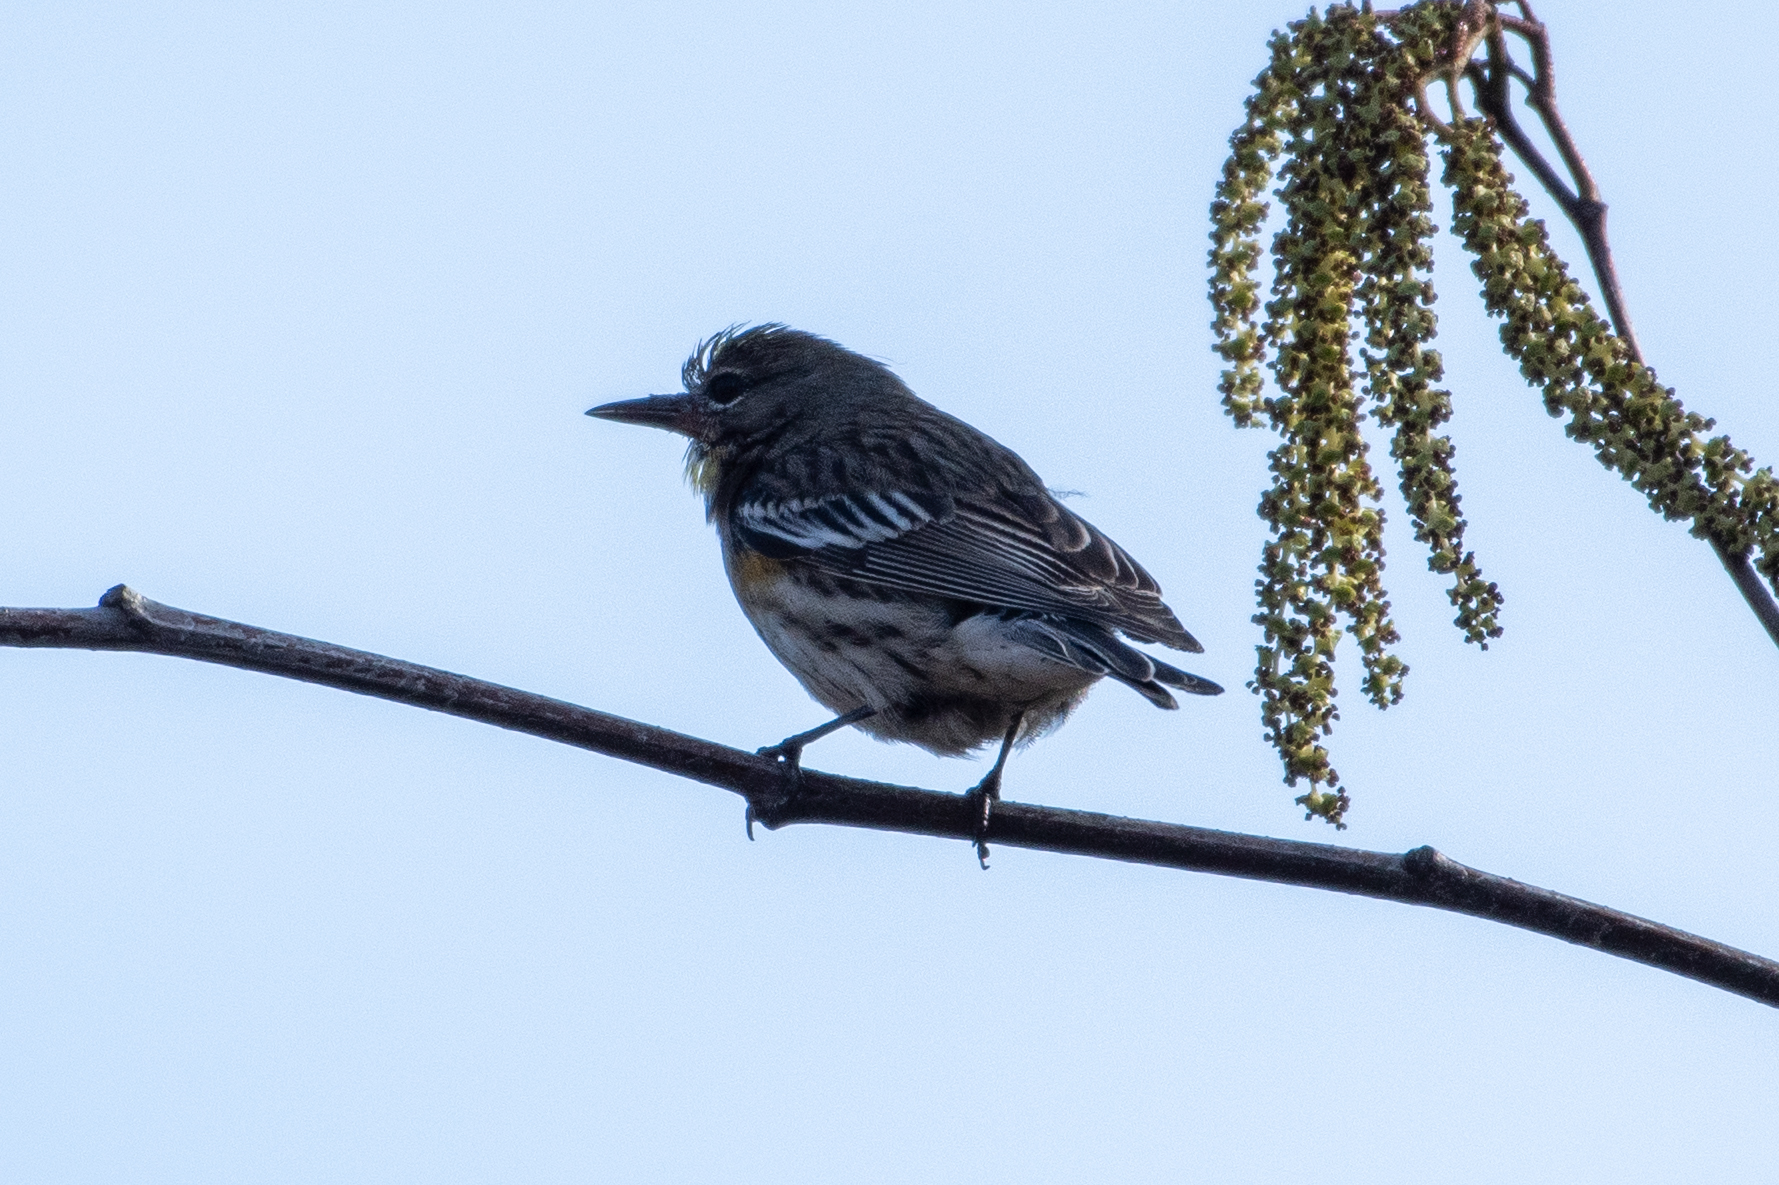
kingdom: Animalia
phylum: Chordata
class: Aves
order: Passeriformes
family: Parulidae
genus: Setophaga
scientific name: Setophaga coronata
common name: Myrtle warbler
